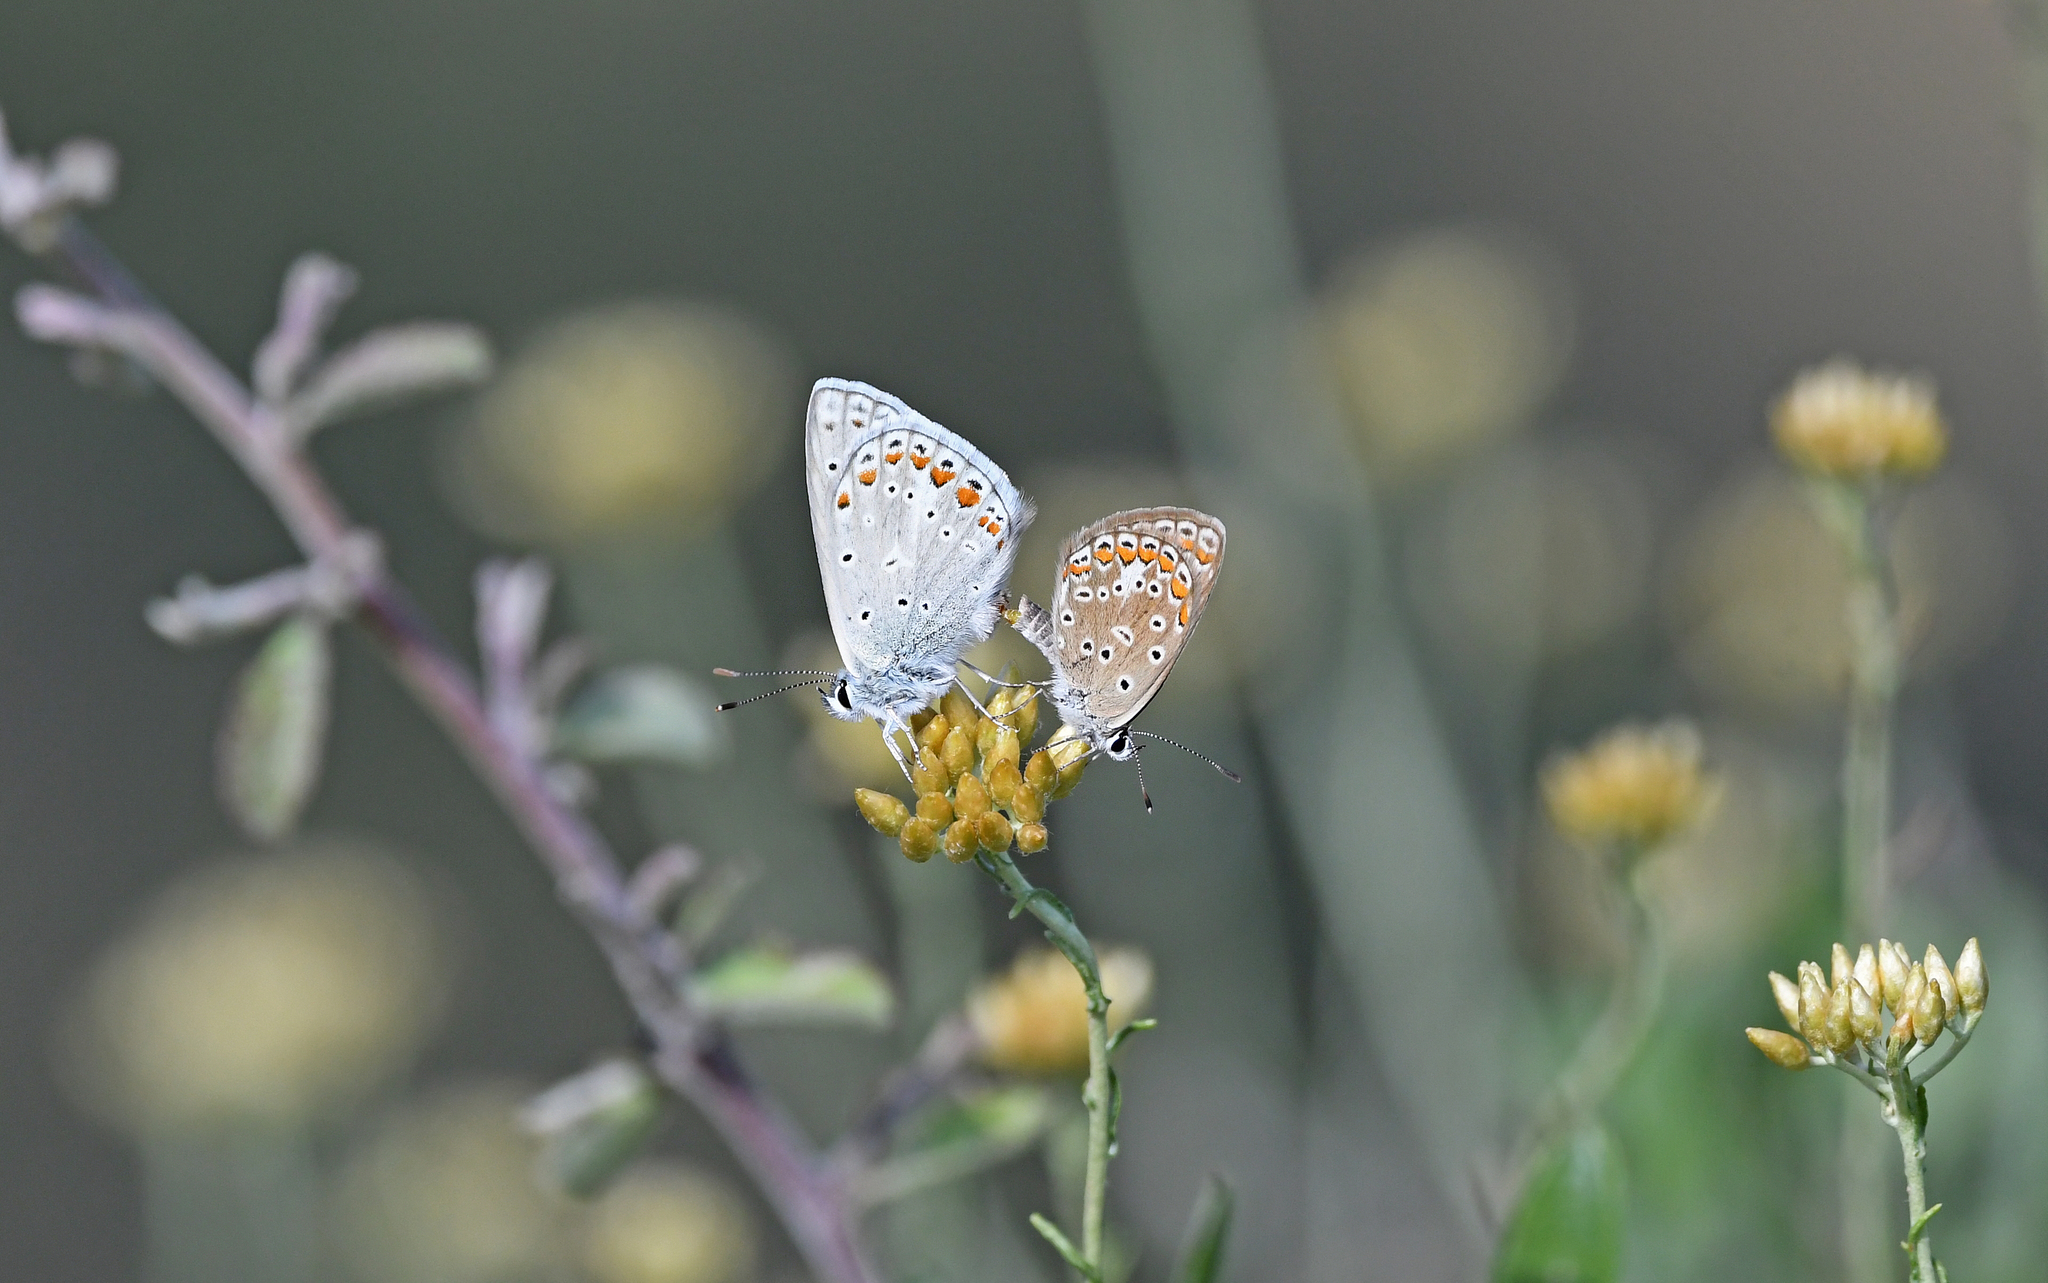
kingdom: Animalia
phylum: Arthropoda
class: Insecta
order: Lepidoptera
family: Lycaenidae
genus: Polyommatus
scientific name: Polyommatus celina
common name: Austaut's blue
